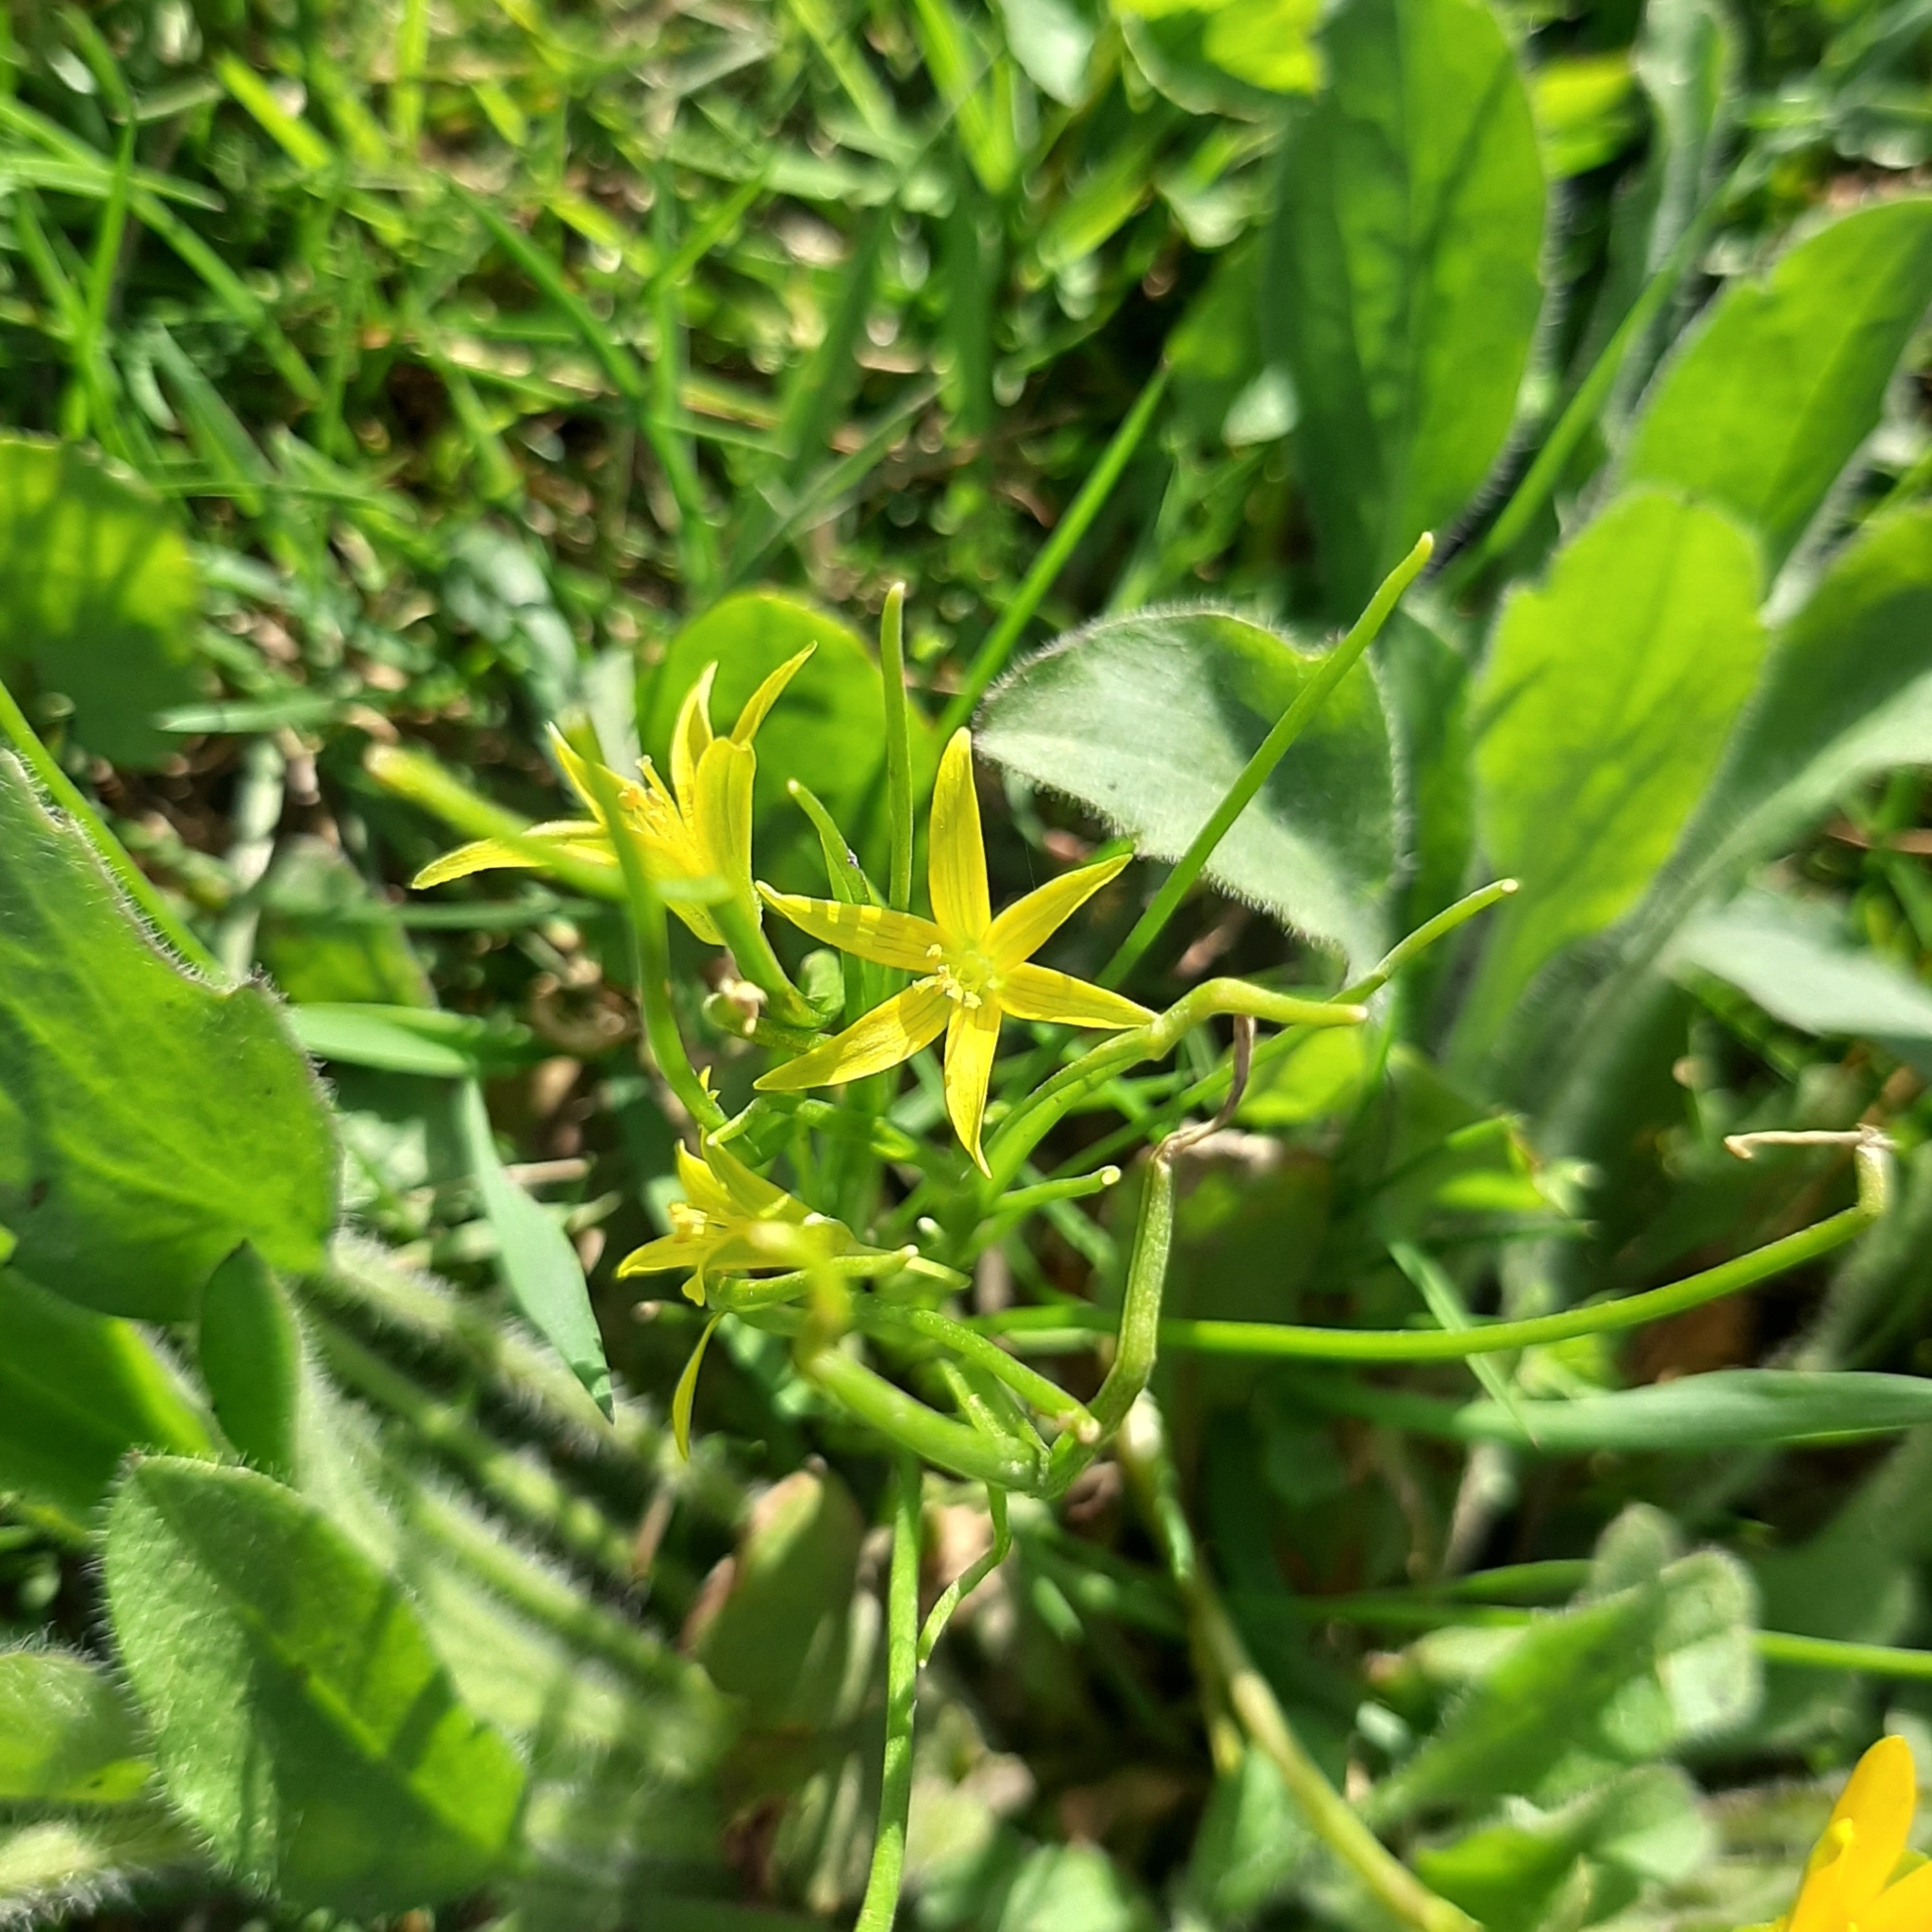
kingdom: Plantae
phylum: Tracheophyta
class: Liliopsida
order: Liliales
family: Liliaceae
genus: Gagea
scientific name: Gagea minima
